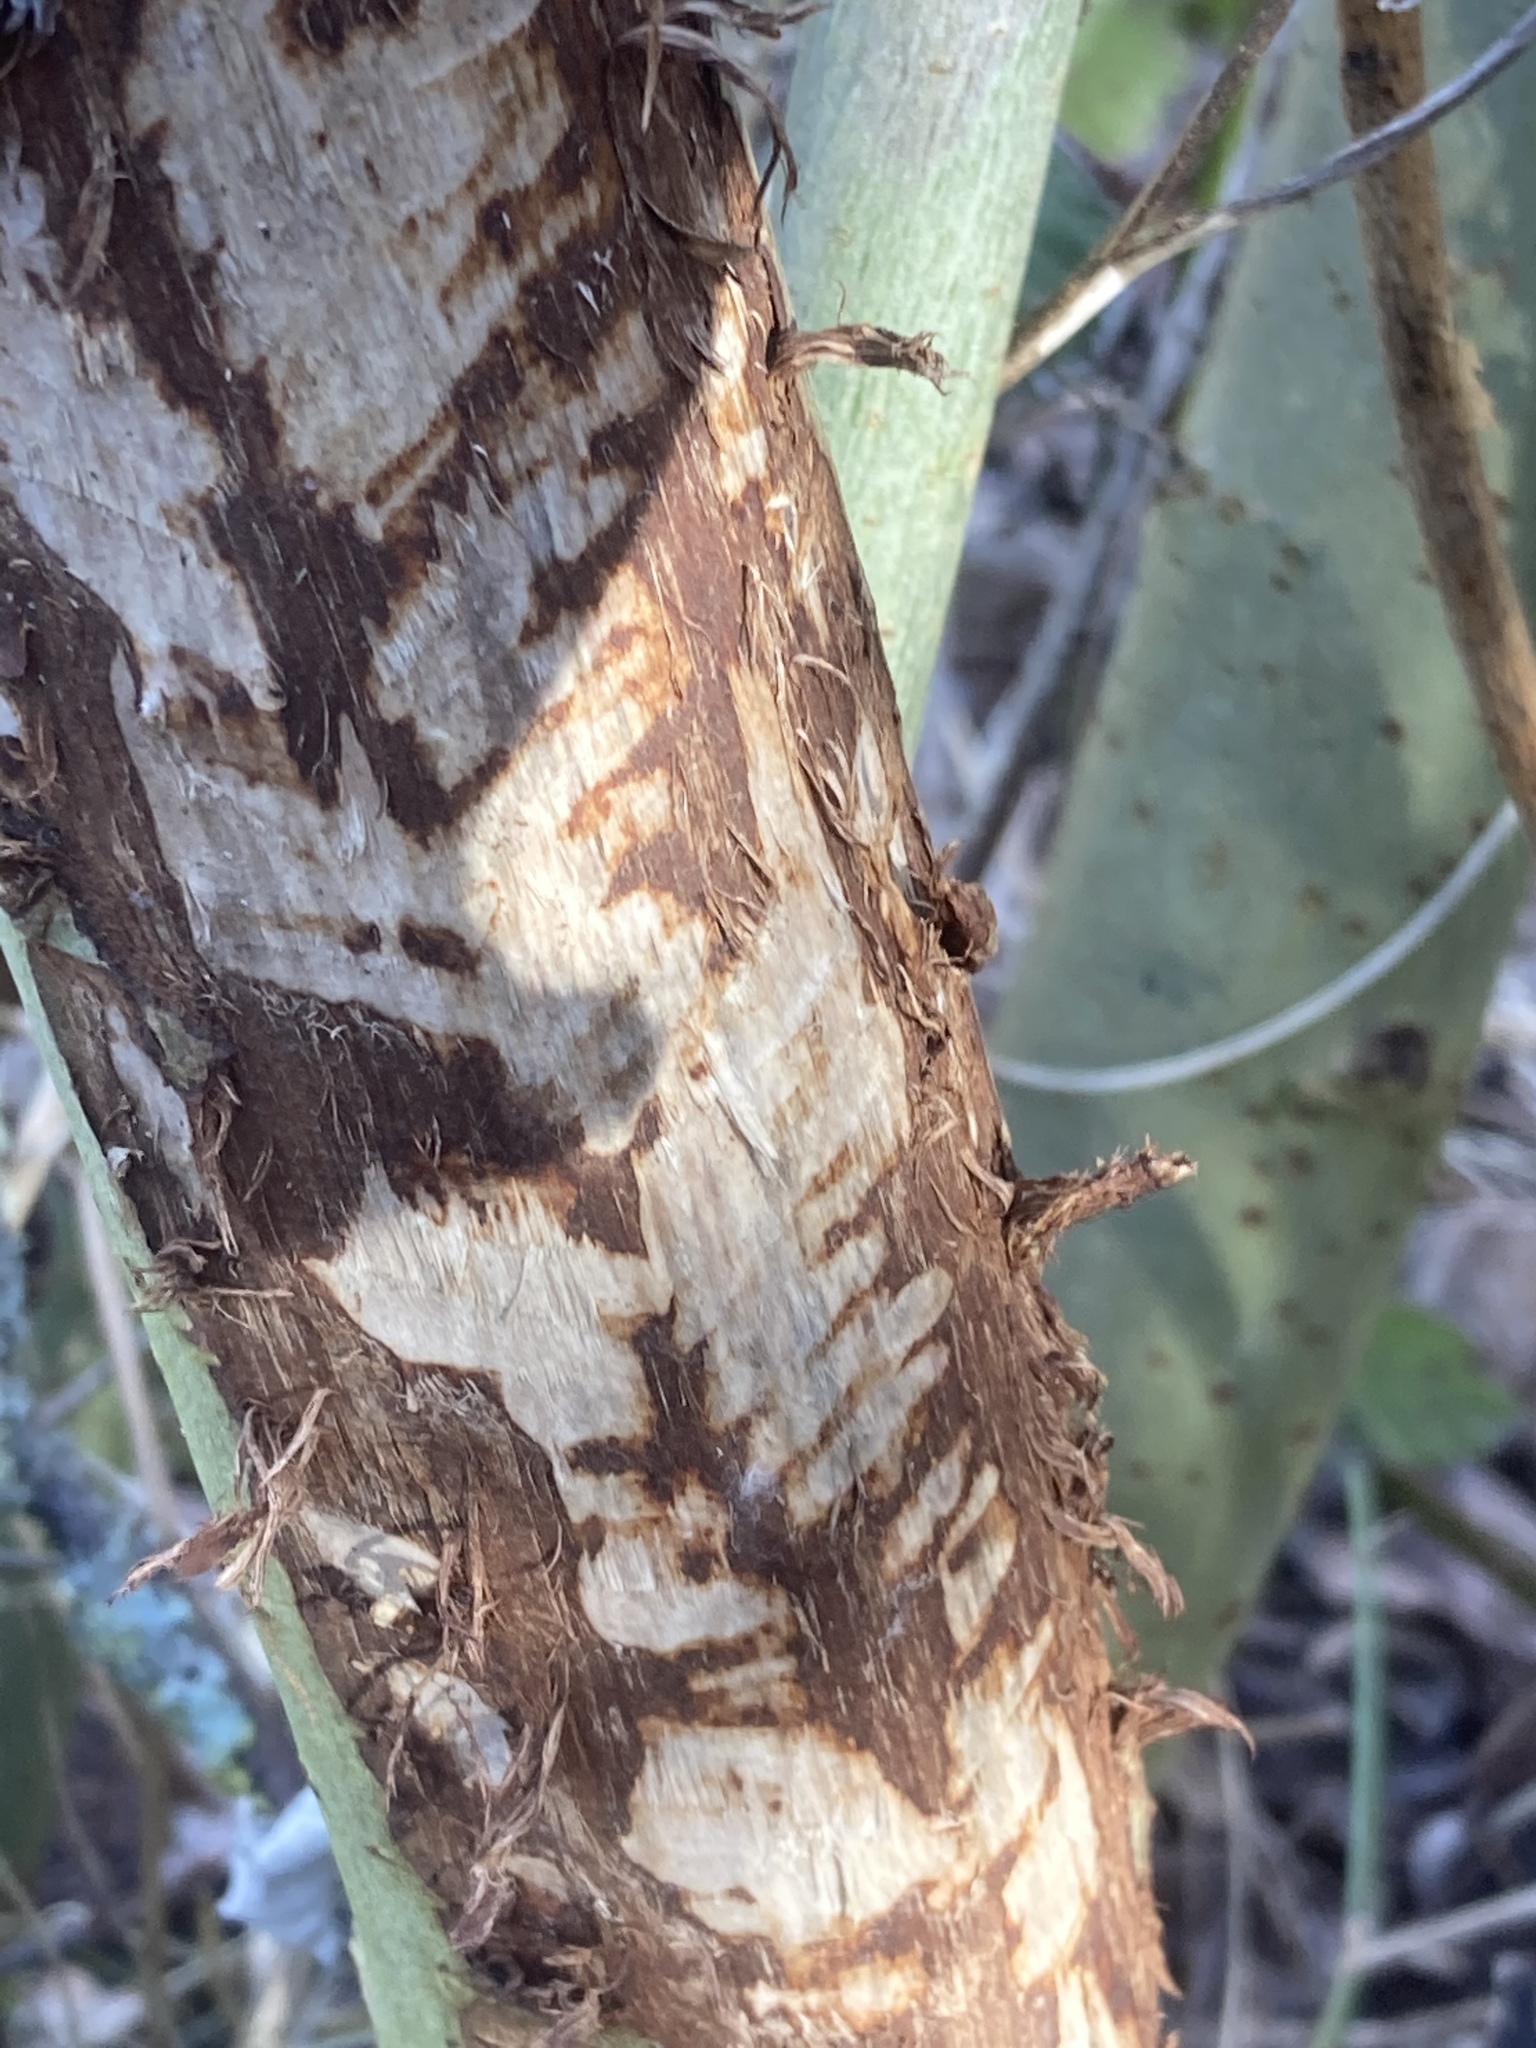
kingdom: Animalia
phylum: Chordata
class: Mammalia
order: Rodentia
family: Castoridae
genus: Castor
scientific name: Castor fiber
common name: Eurasian beaver
